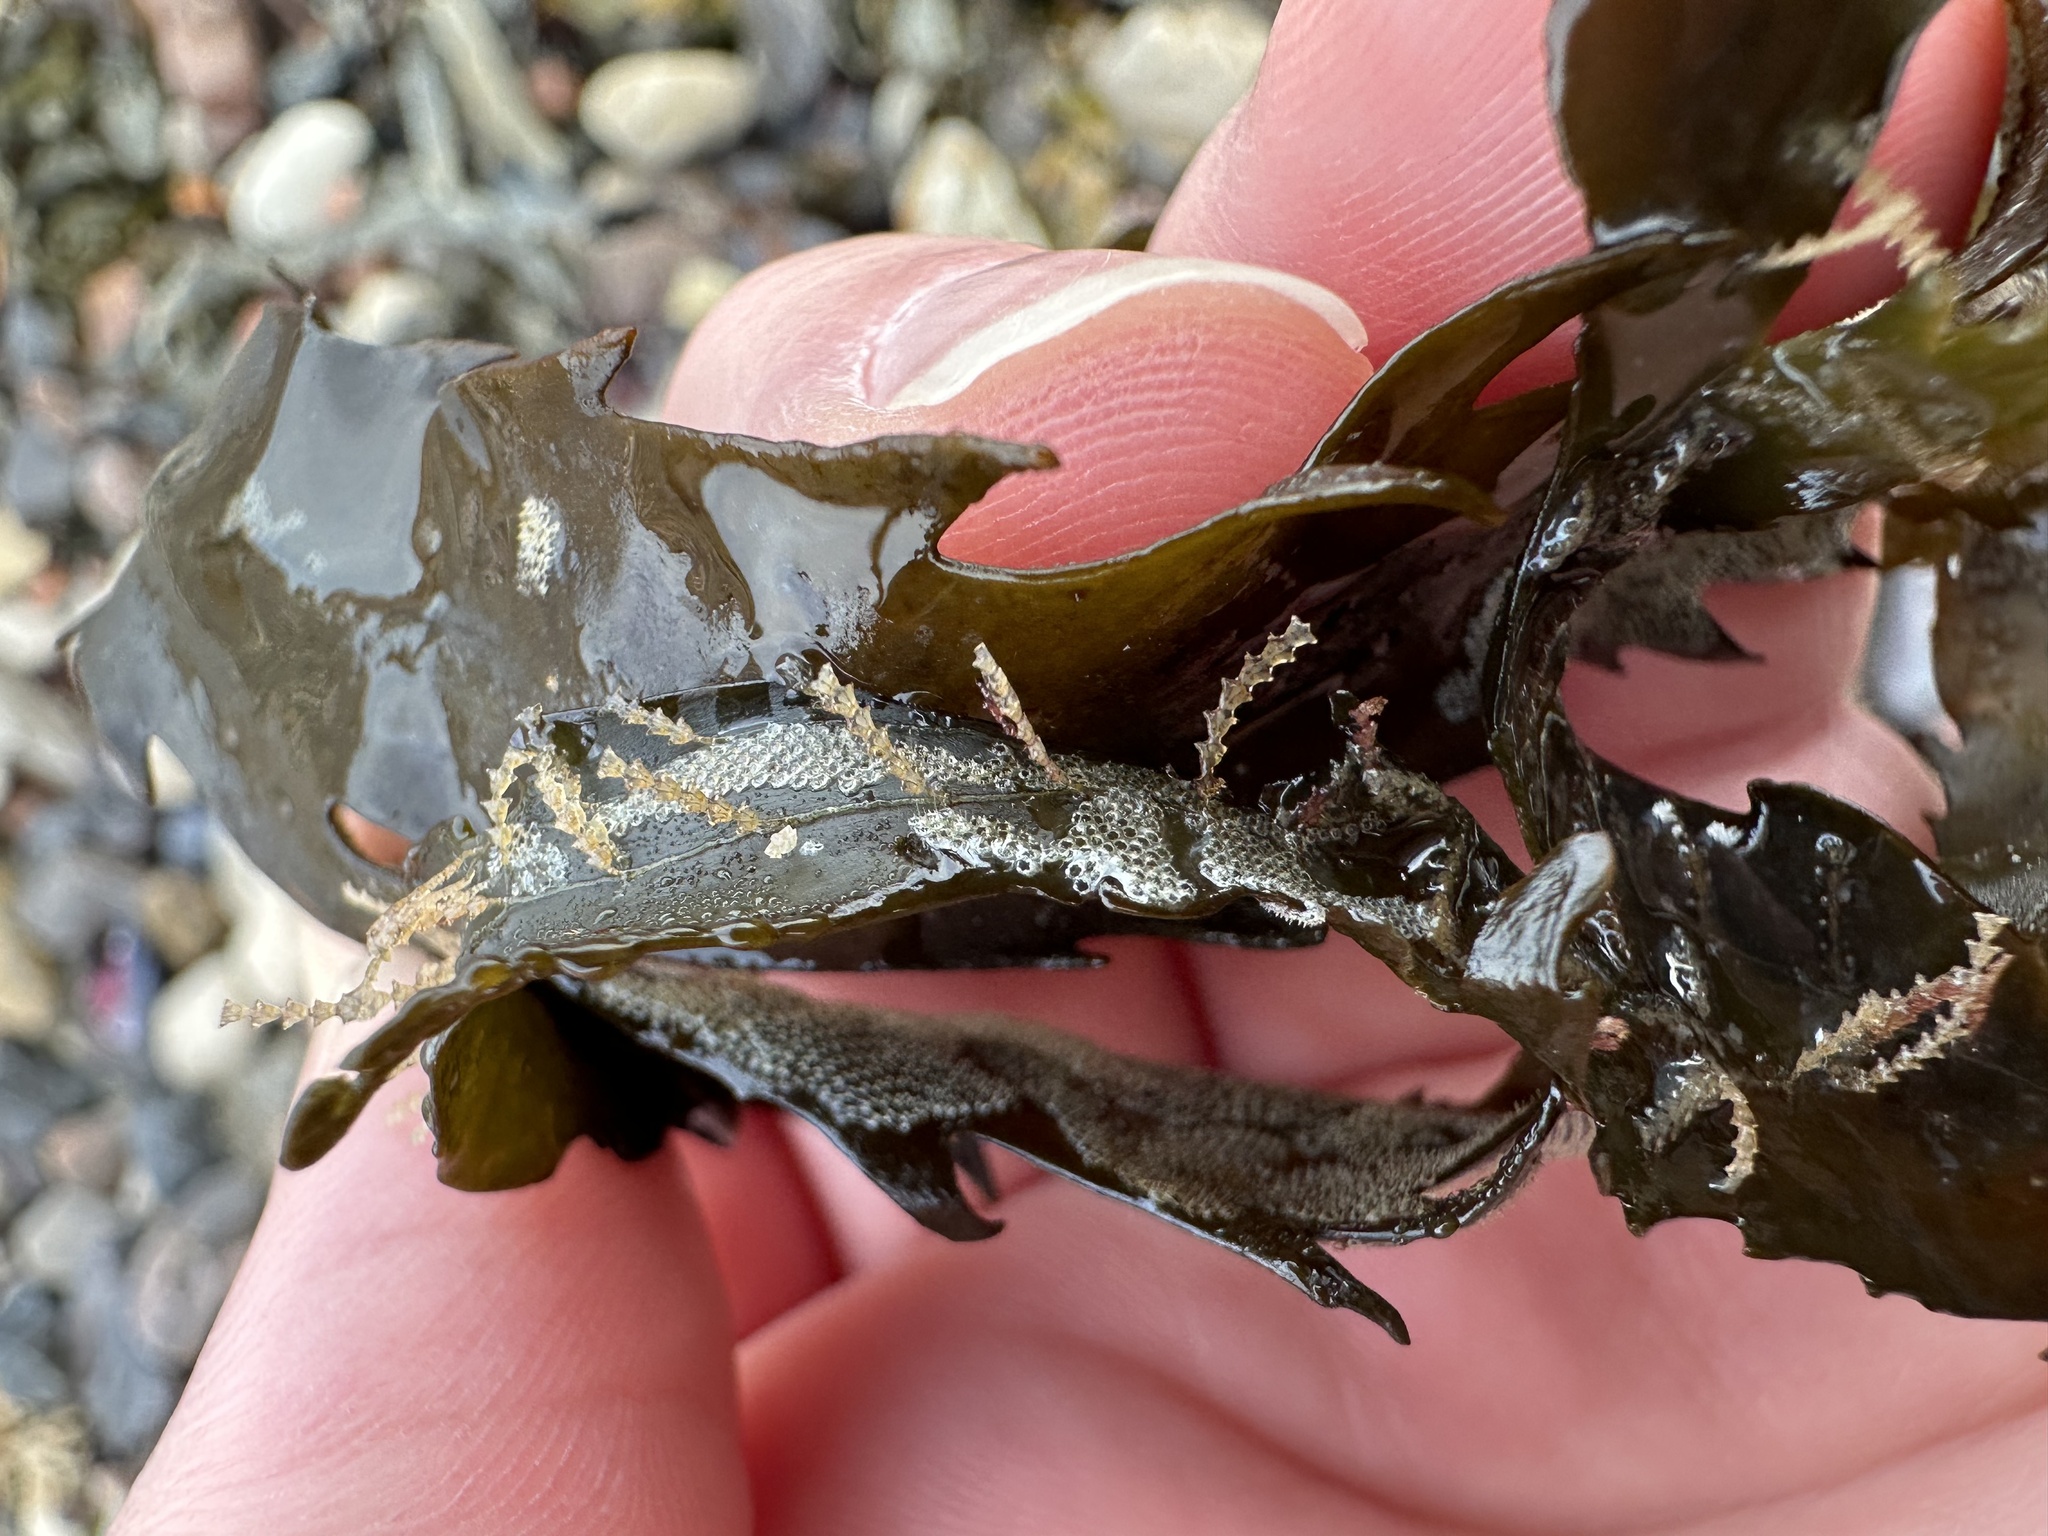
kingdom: Animalia
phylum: Cnidaria
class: Hydrozoa
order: Leptothecata
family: Sertulariidae
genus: Dynamena
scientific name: Dynamena pumila
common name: Sea oak
